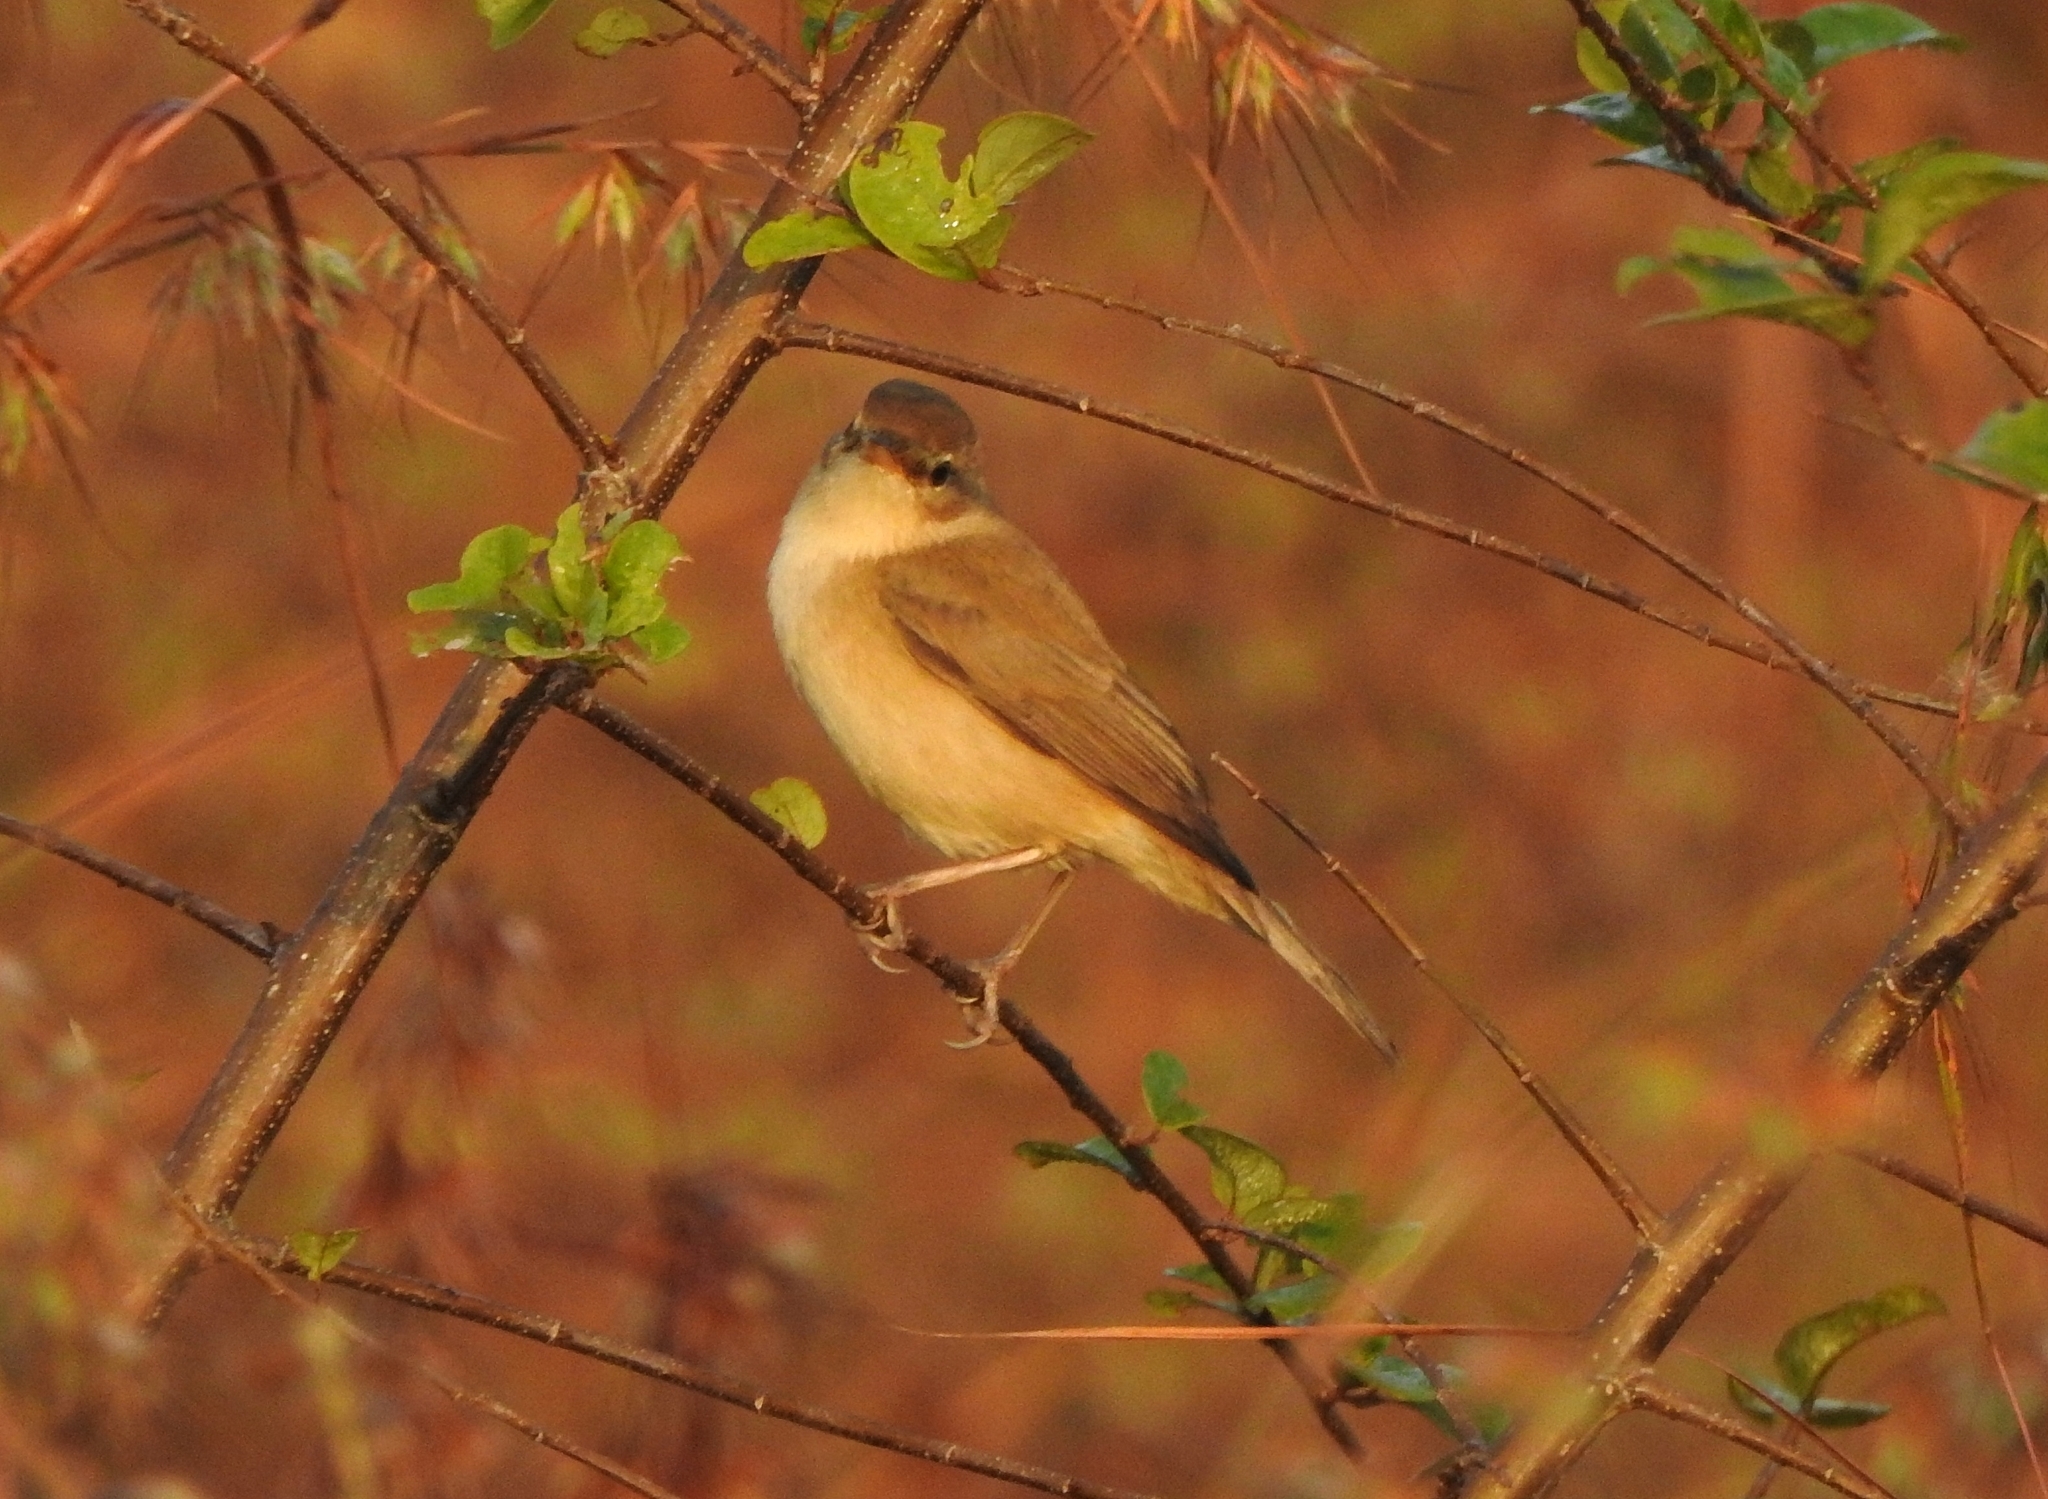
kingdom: Animalia
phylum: Chordata
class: Aves
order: Passeriformes
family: Acrocephalidae
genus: Iduna
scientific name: Iduna caligata
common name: Booted warbler
